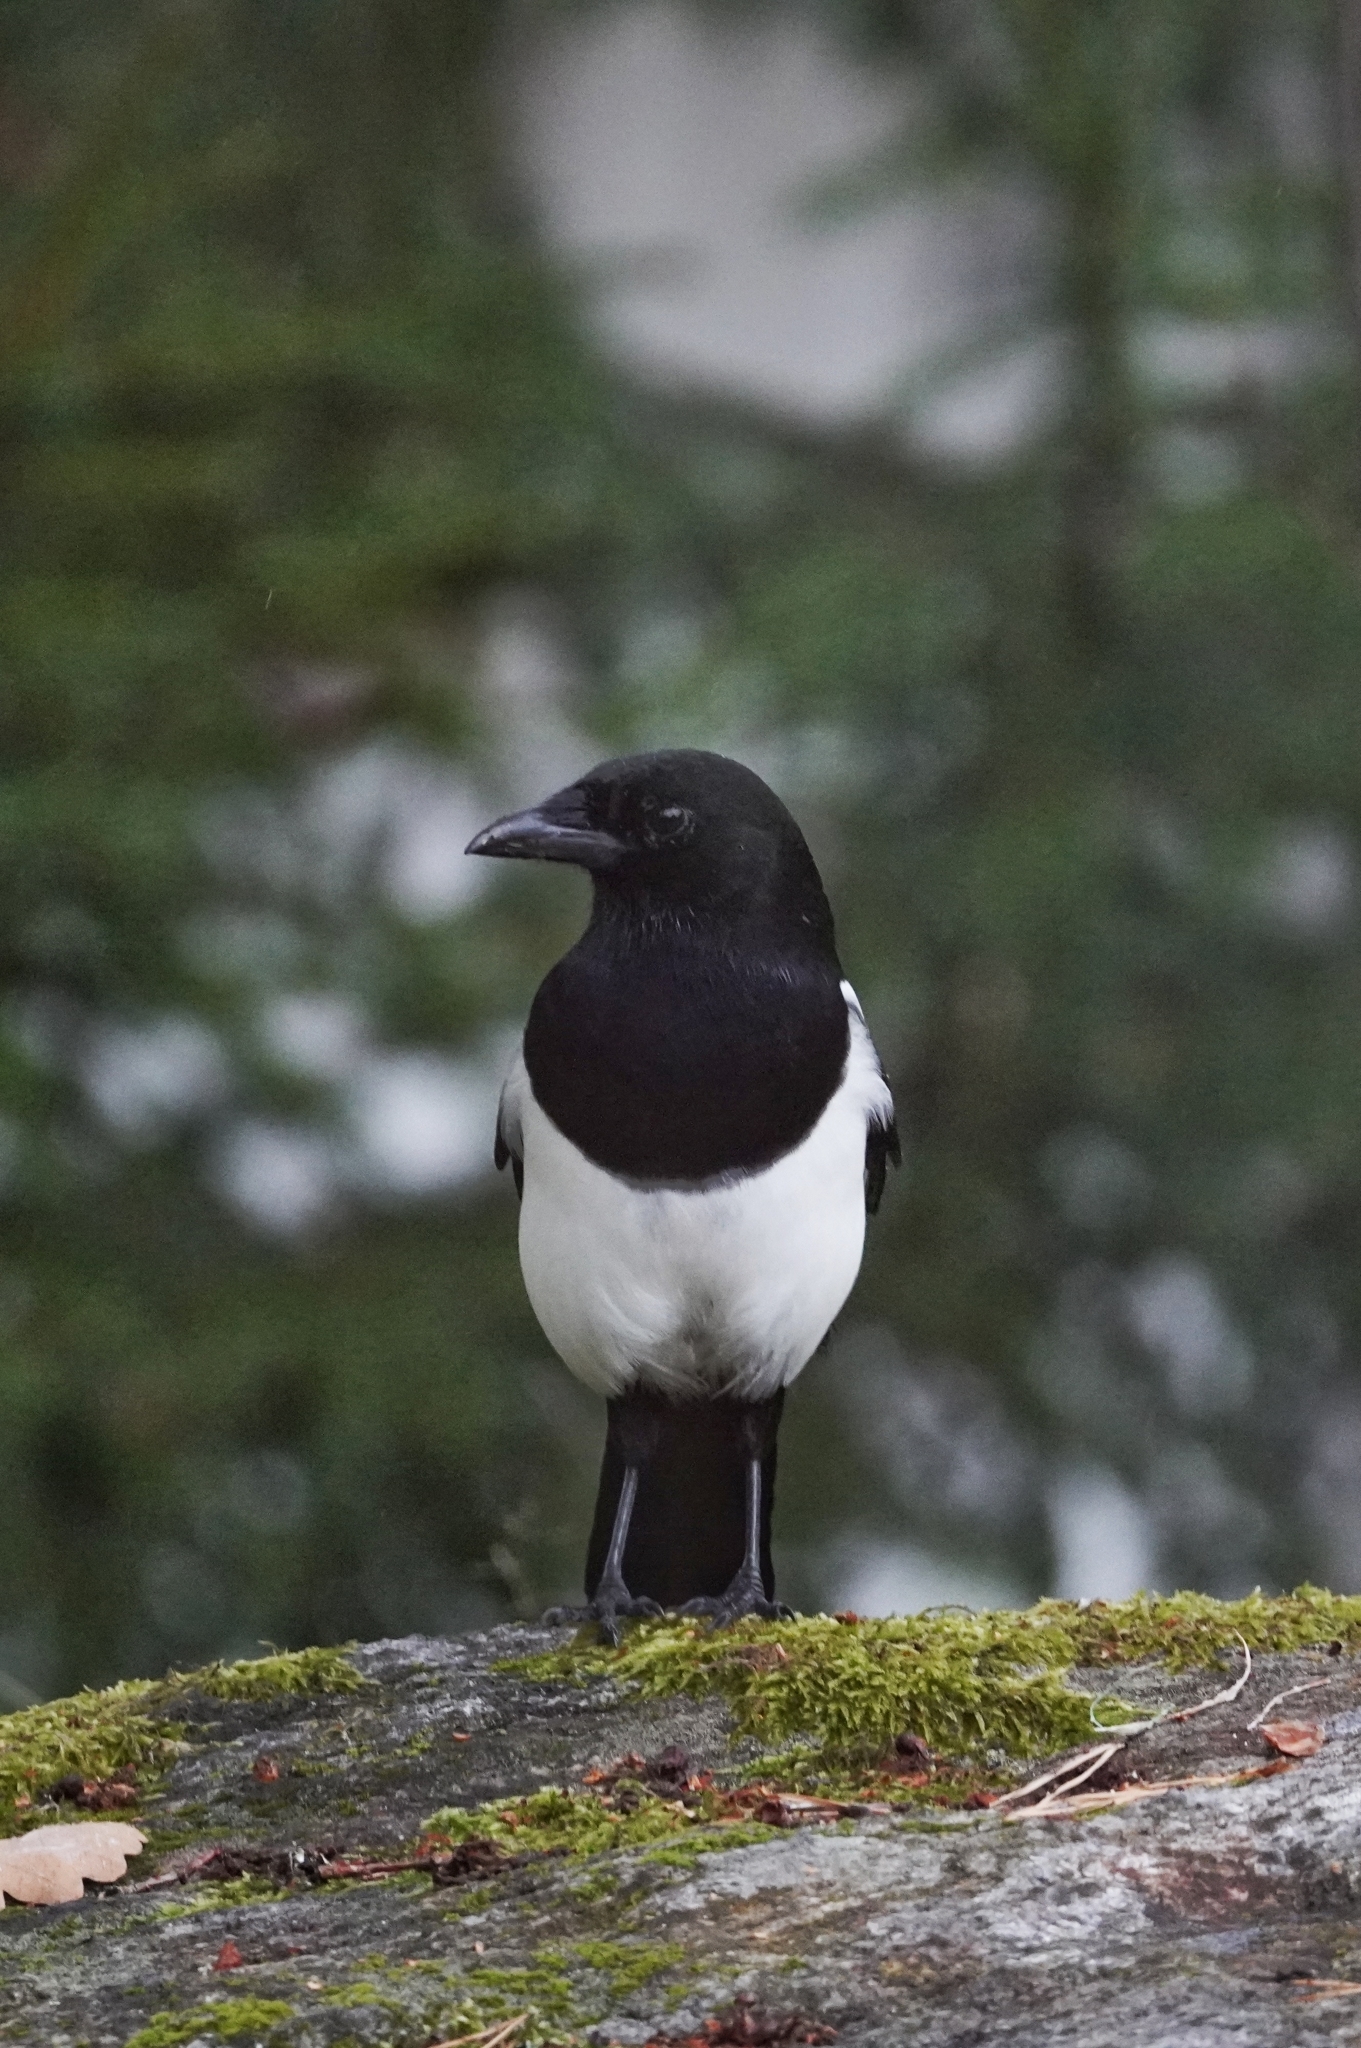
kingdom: Animalia
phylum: Chordata
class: Aves
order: Passeriformes
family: Corvidae
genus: Pica
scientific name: Pica pica
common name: Eurasian magpie
